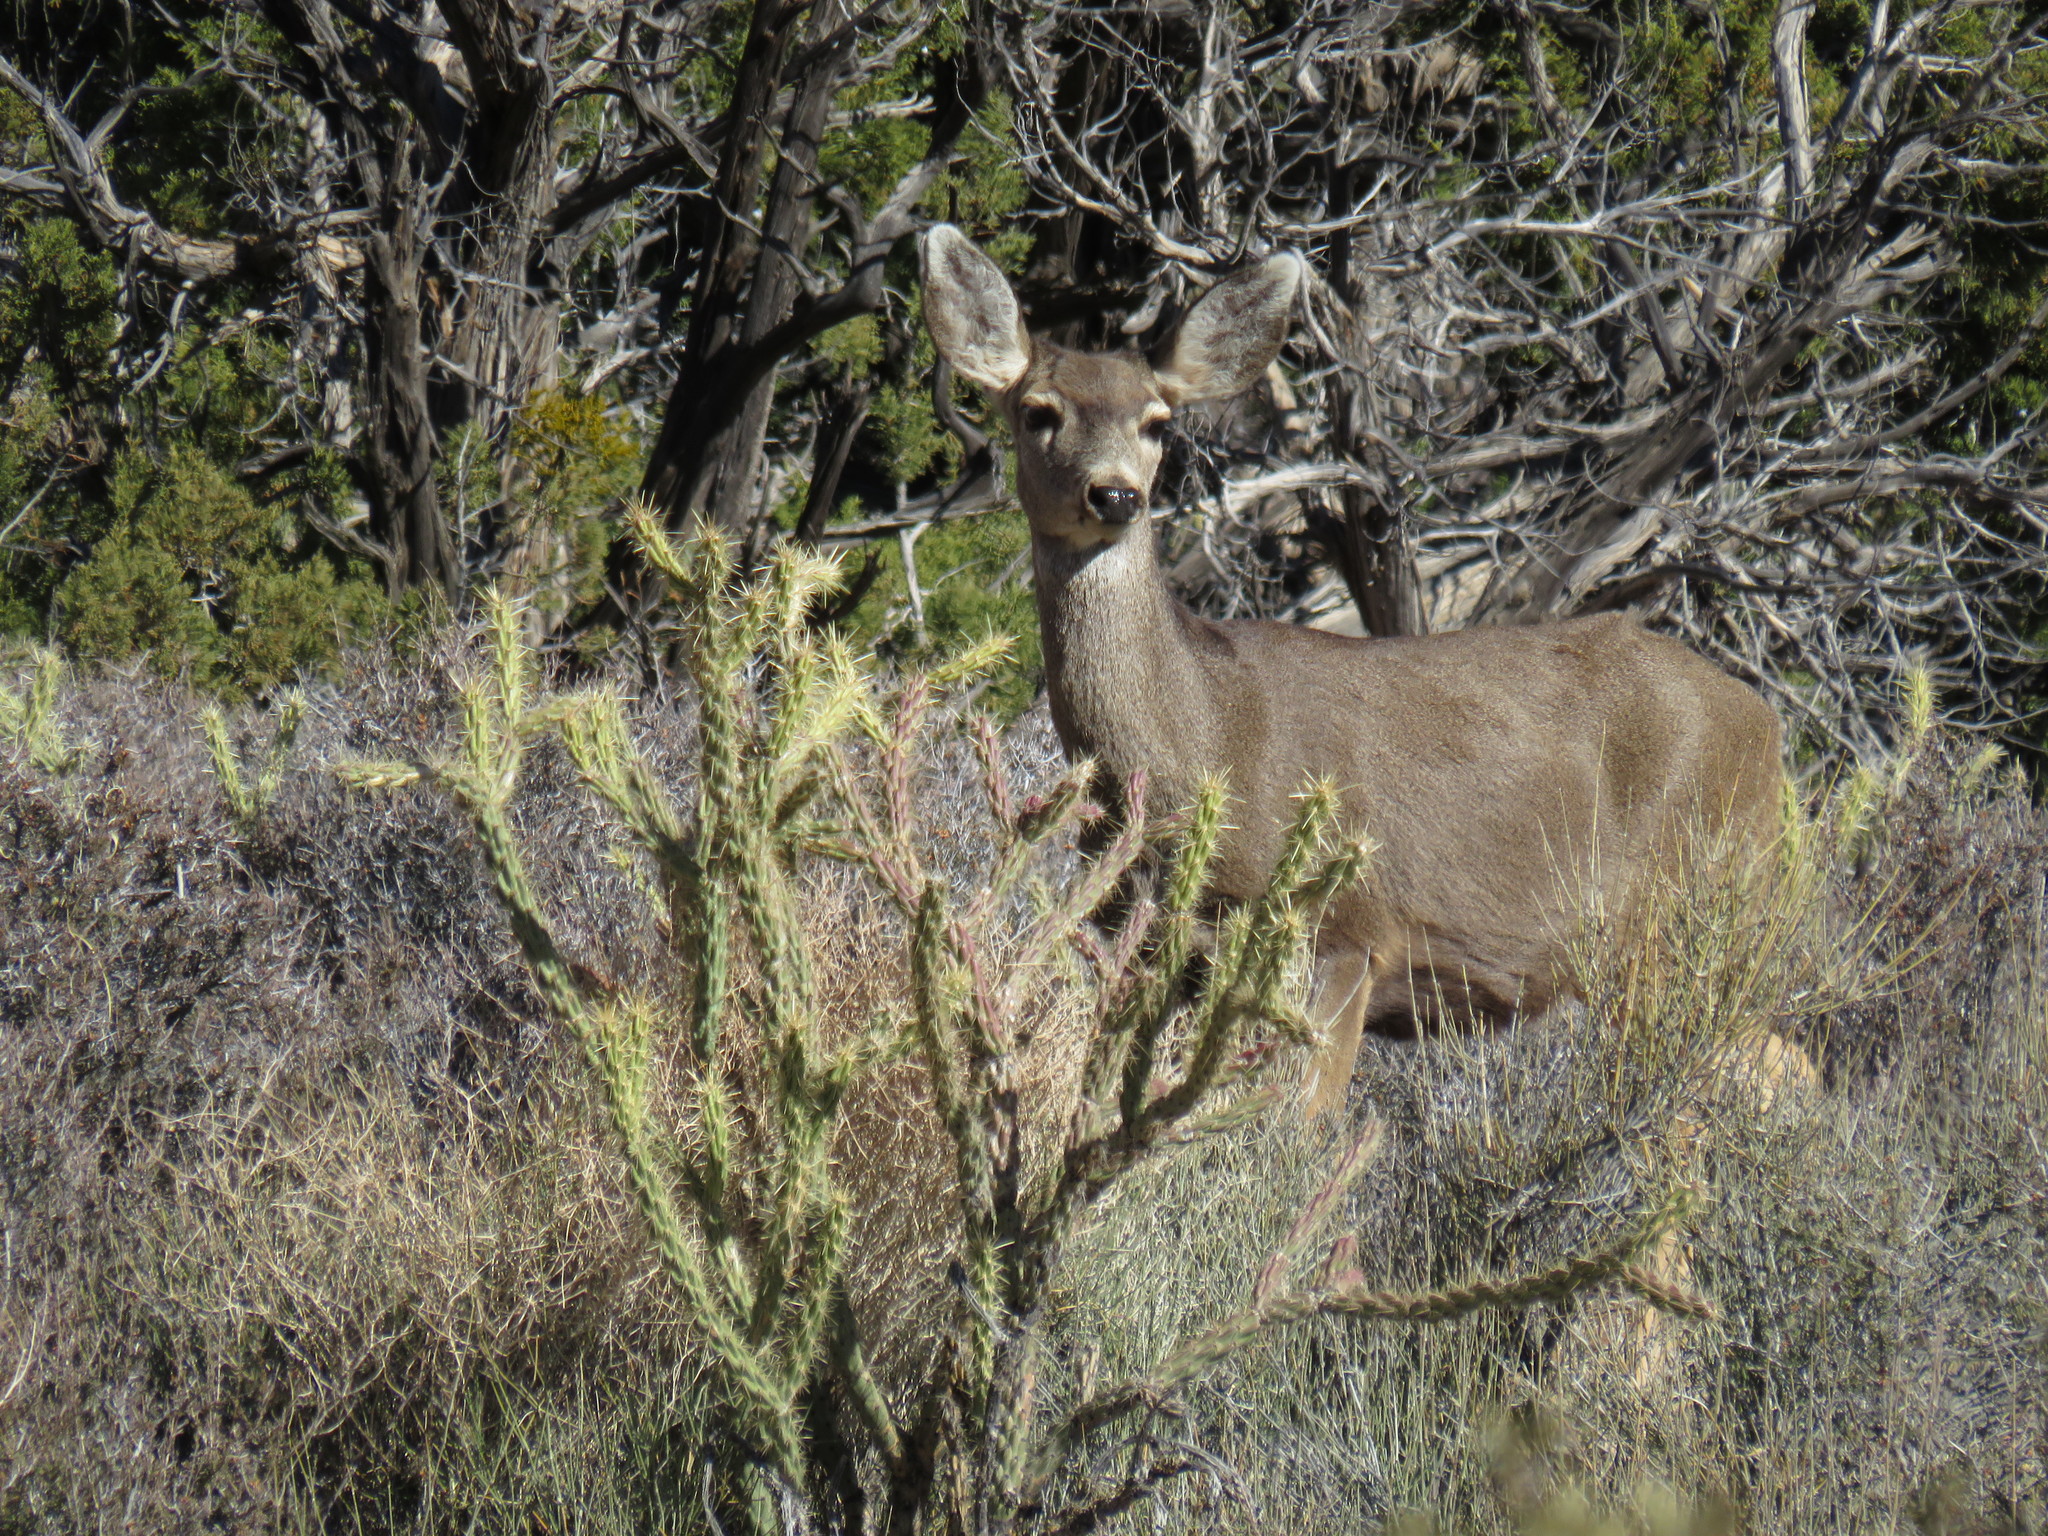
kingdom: Animalia
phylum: Chordata
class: Mammalia
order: Artiodactyla
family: Cervidae
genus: Odocoileus
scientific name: Odocoileus hemionus
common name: Mule deer
